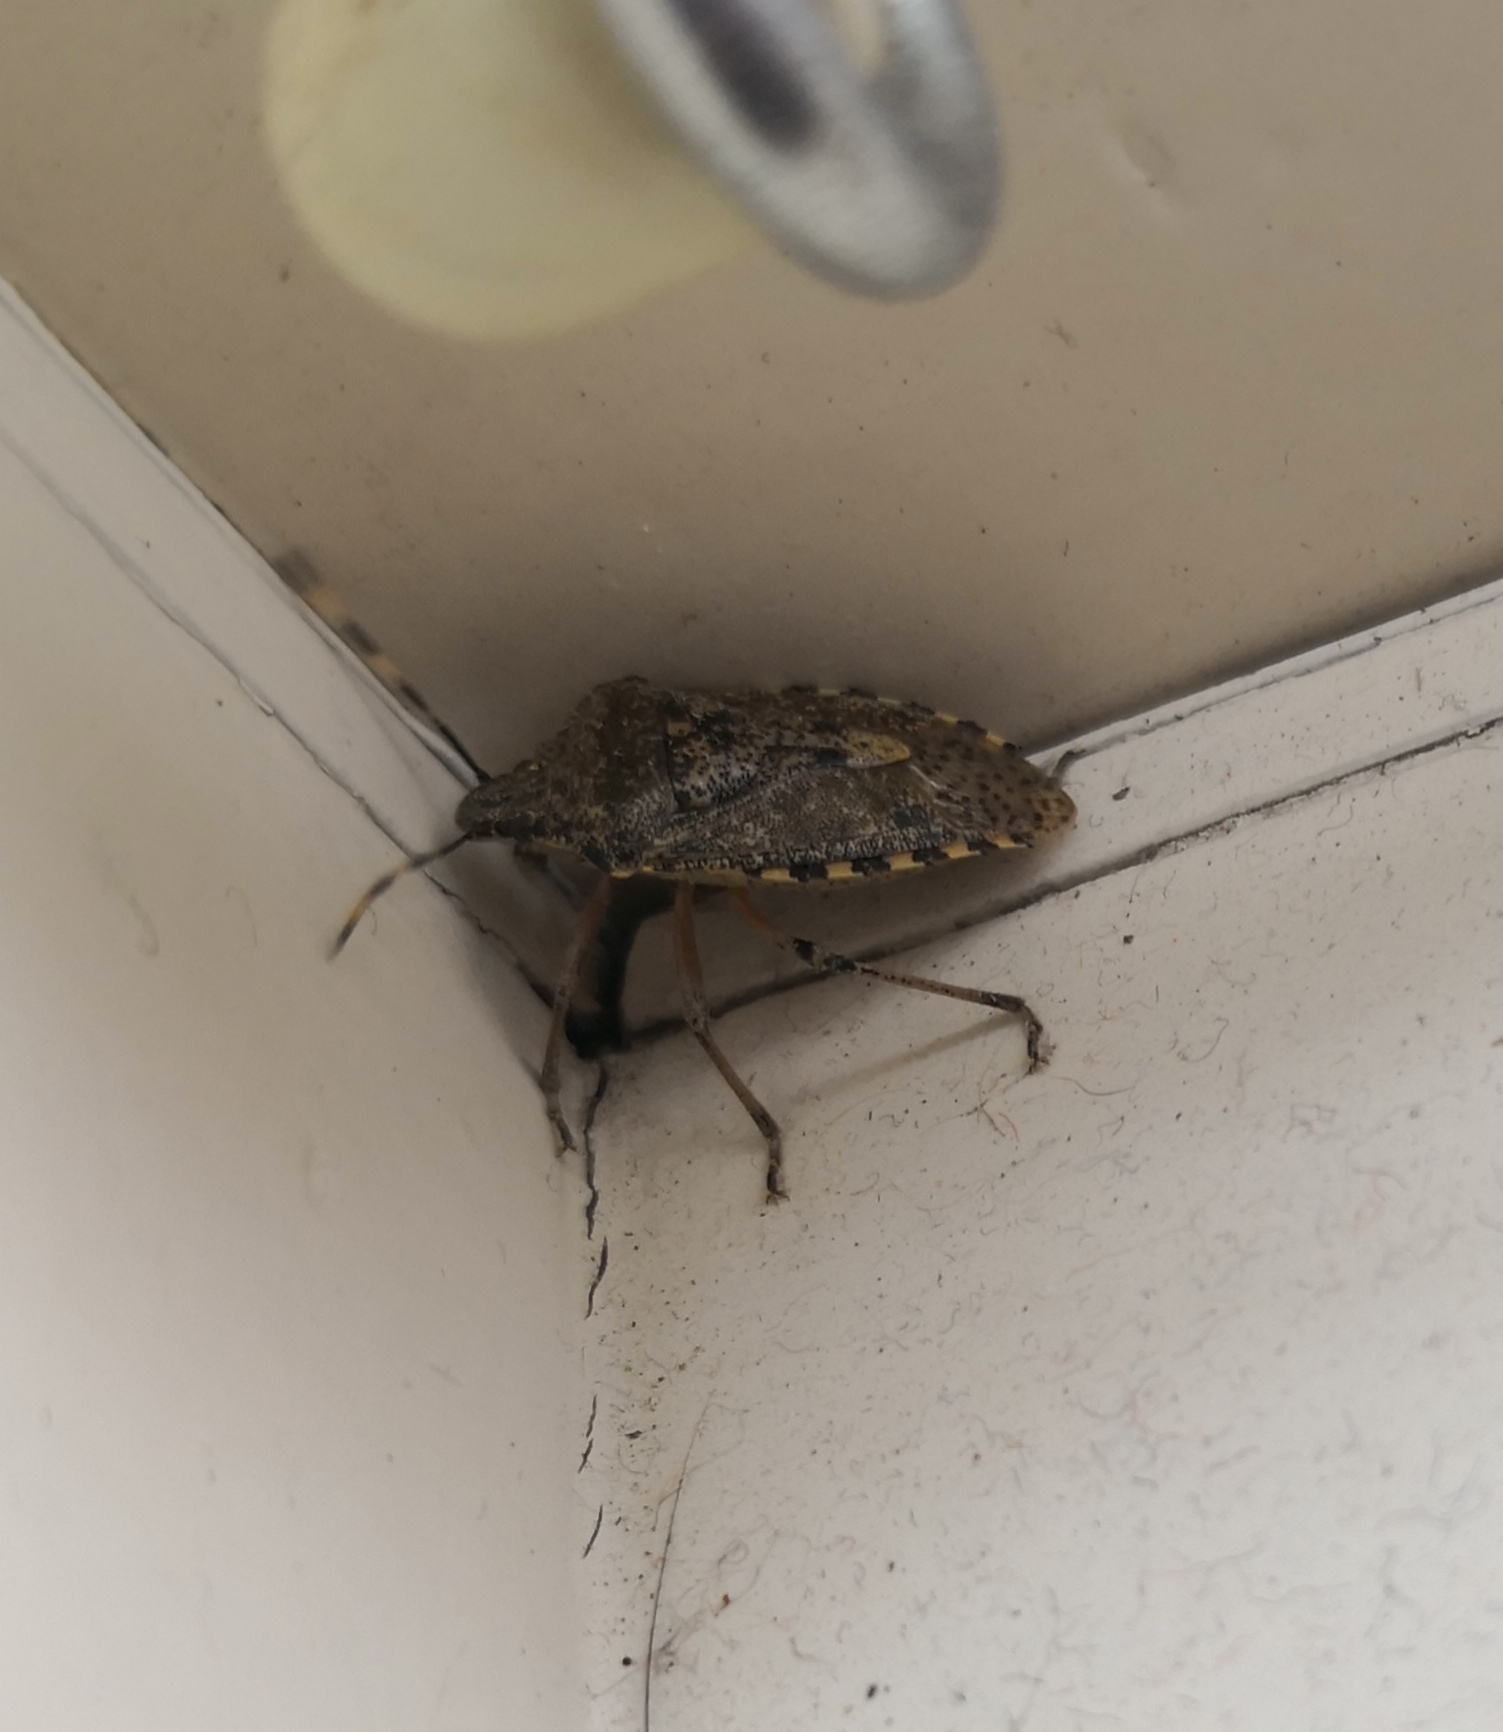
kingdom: Animalia
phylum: Arthropoda
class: Insecta
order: Hemiptera
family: Pentatomidae
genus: Rhaphigaster
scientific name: Rhaphigaster nebulosa
